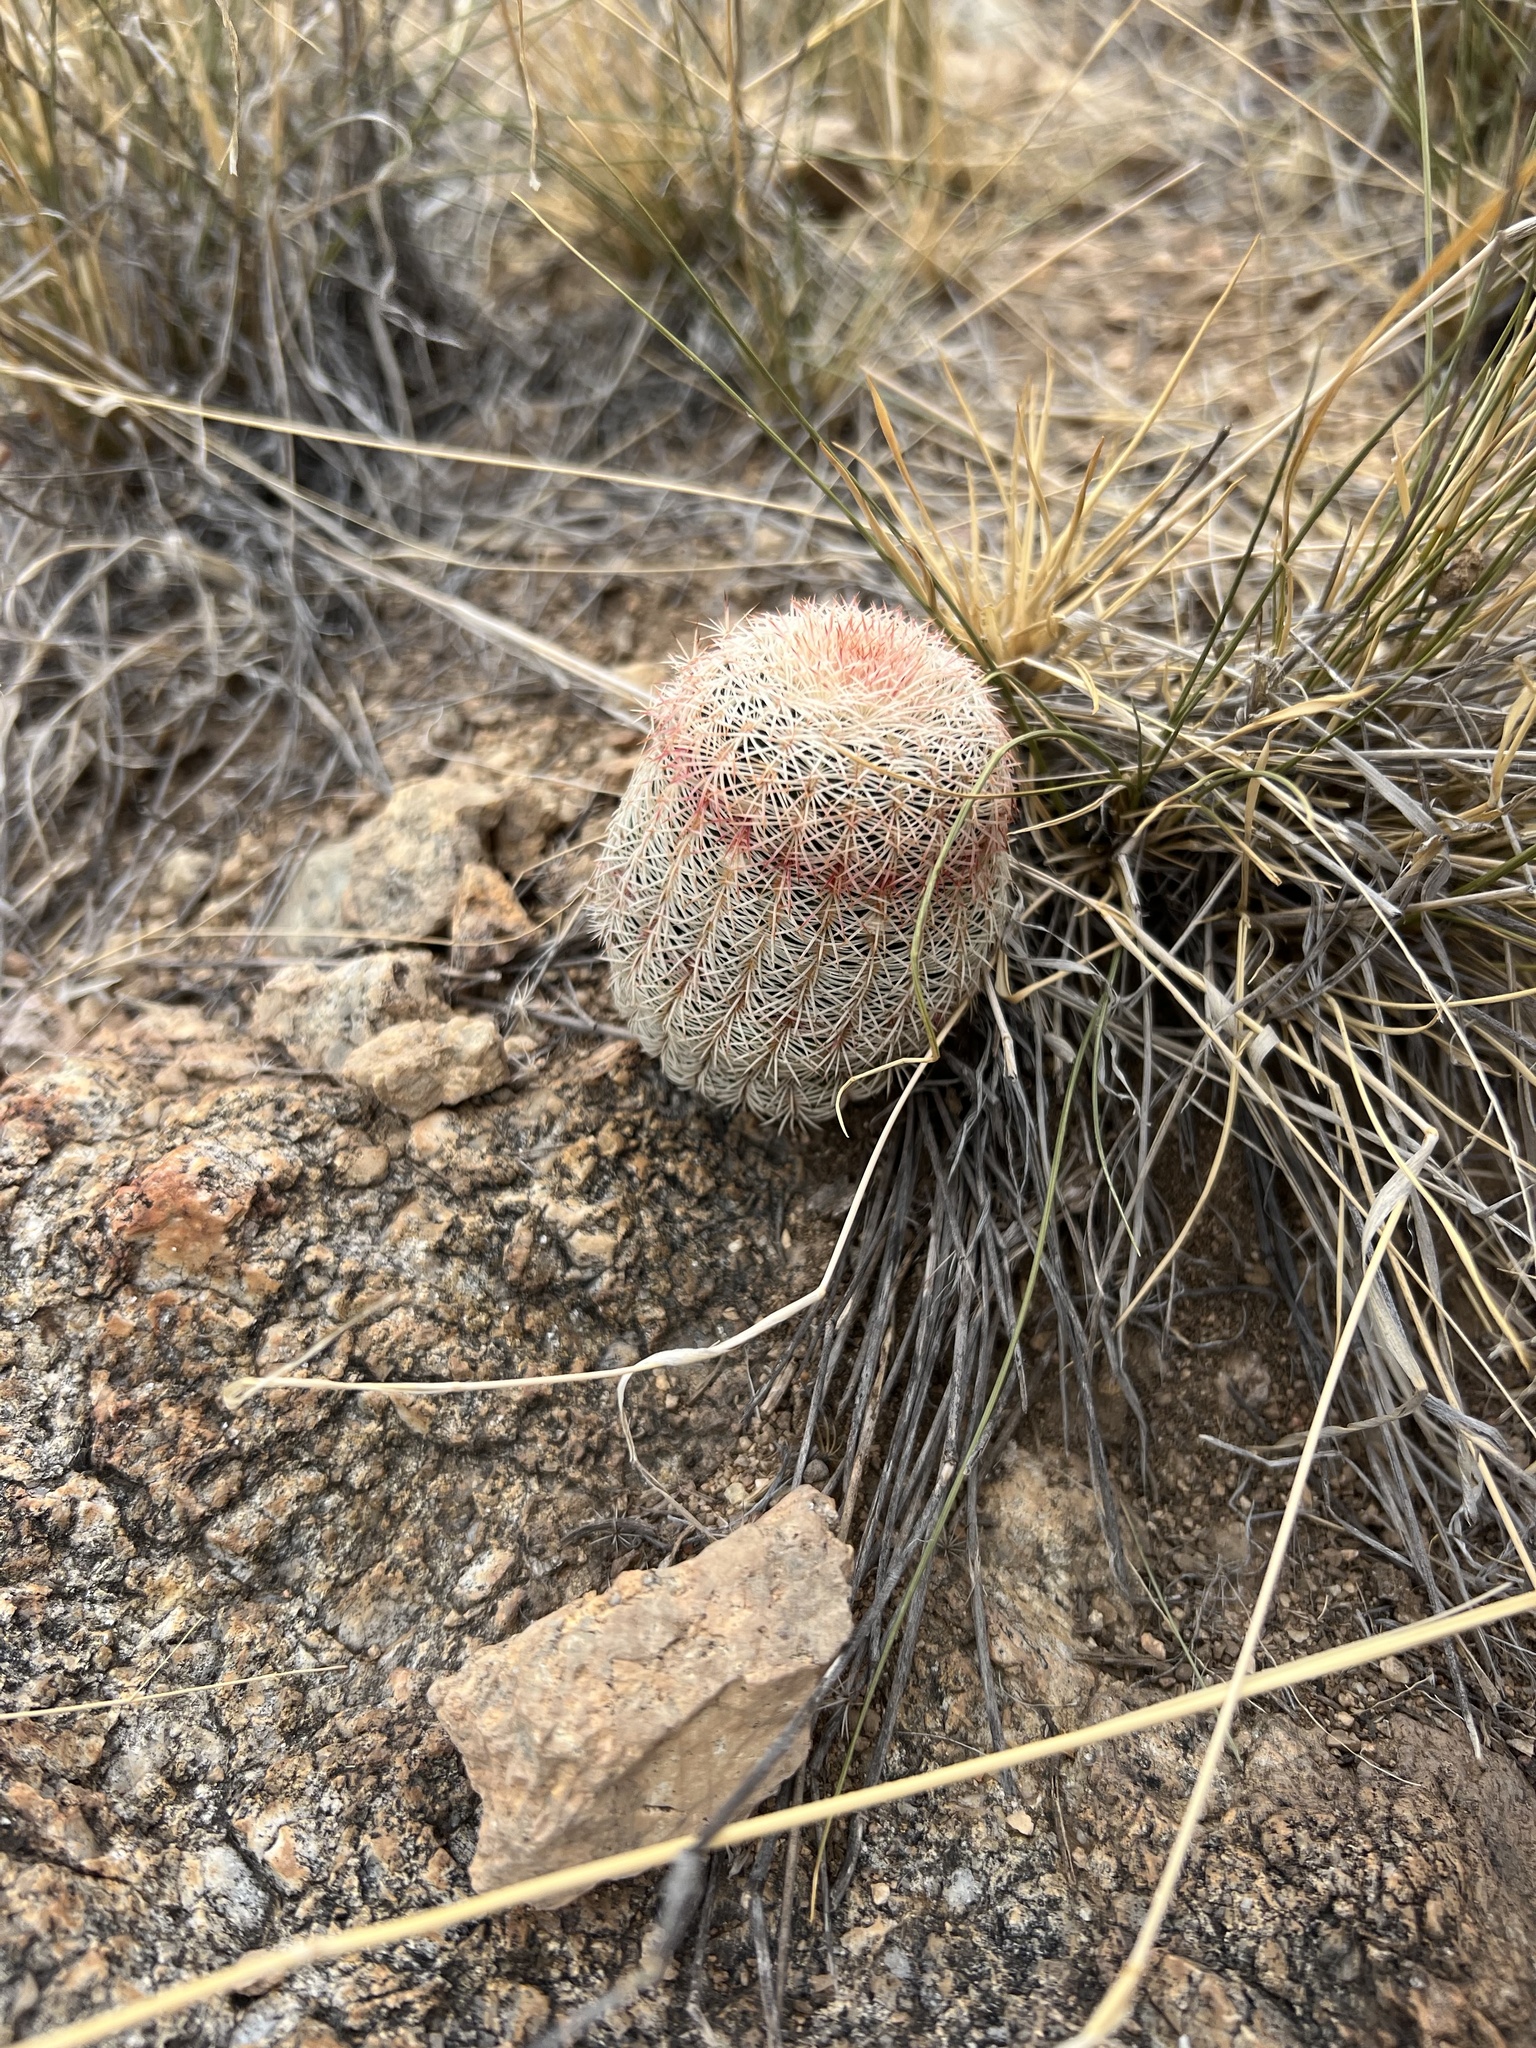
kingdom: Plantae
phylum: Tracheophyta
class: Magnoliopsida
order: Caryophyllales
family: Cactaceae
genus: Echinocereus
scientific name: Echinocereus rigidissimus
